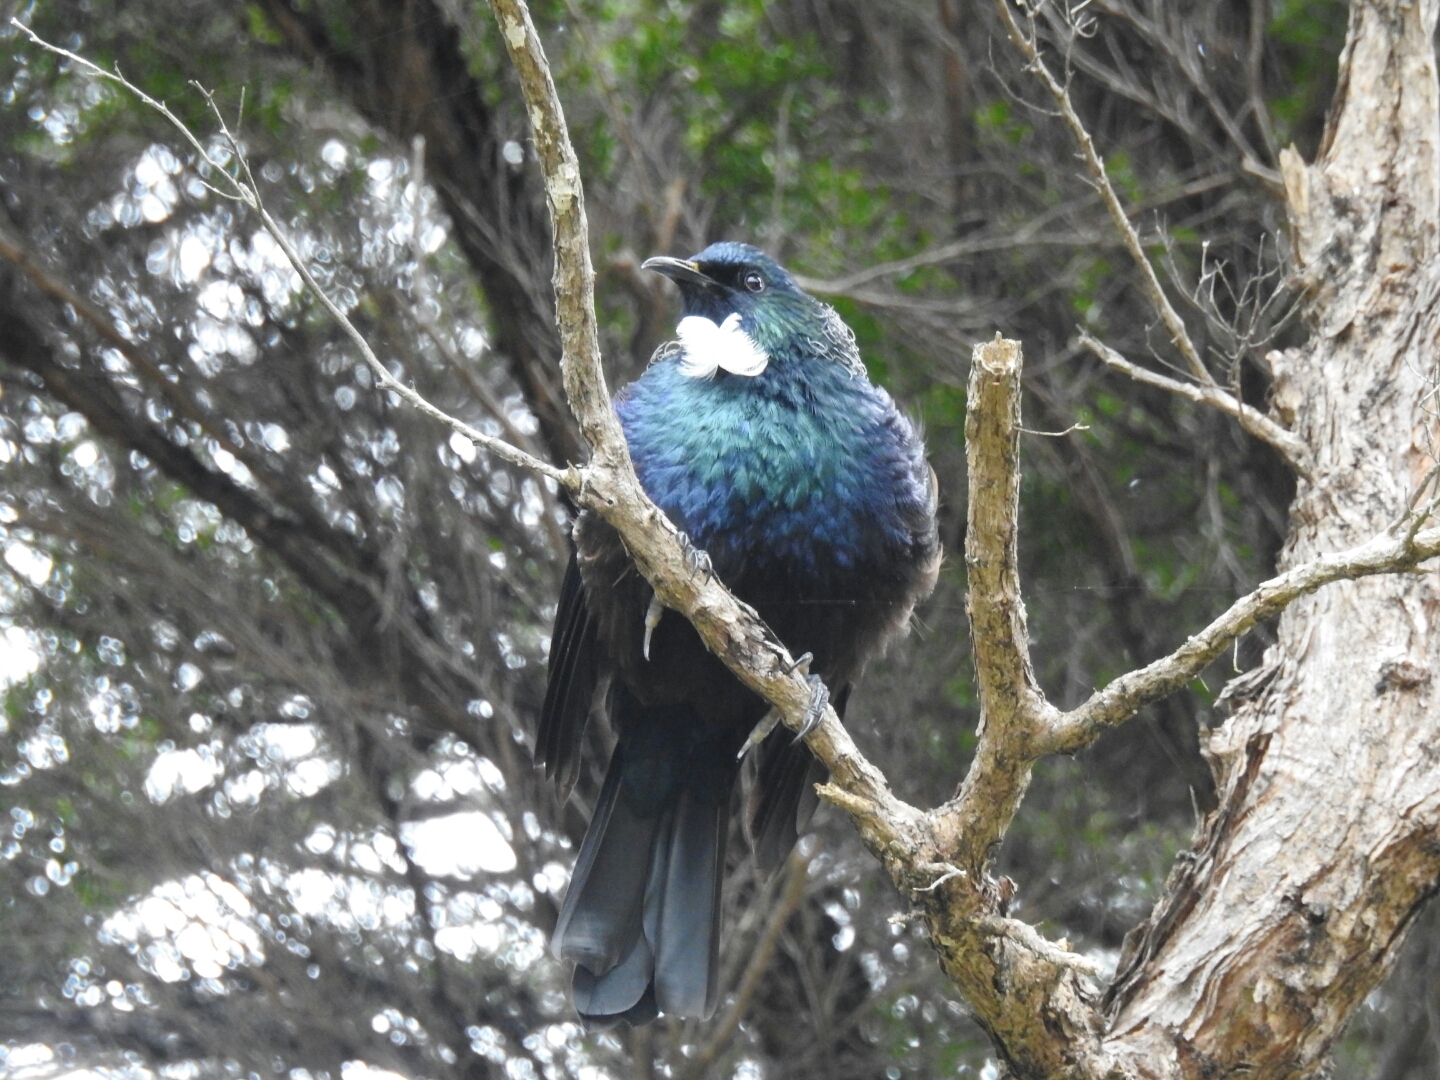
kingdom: Animalia
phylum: Chordata
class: Aves
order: Passeriformes
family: Meliphagidae
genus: Prosthemadera
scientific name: Prosthemadera novaeseelandiae
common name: Tui
